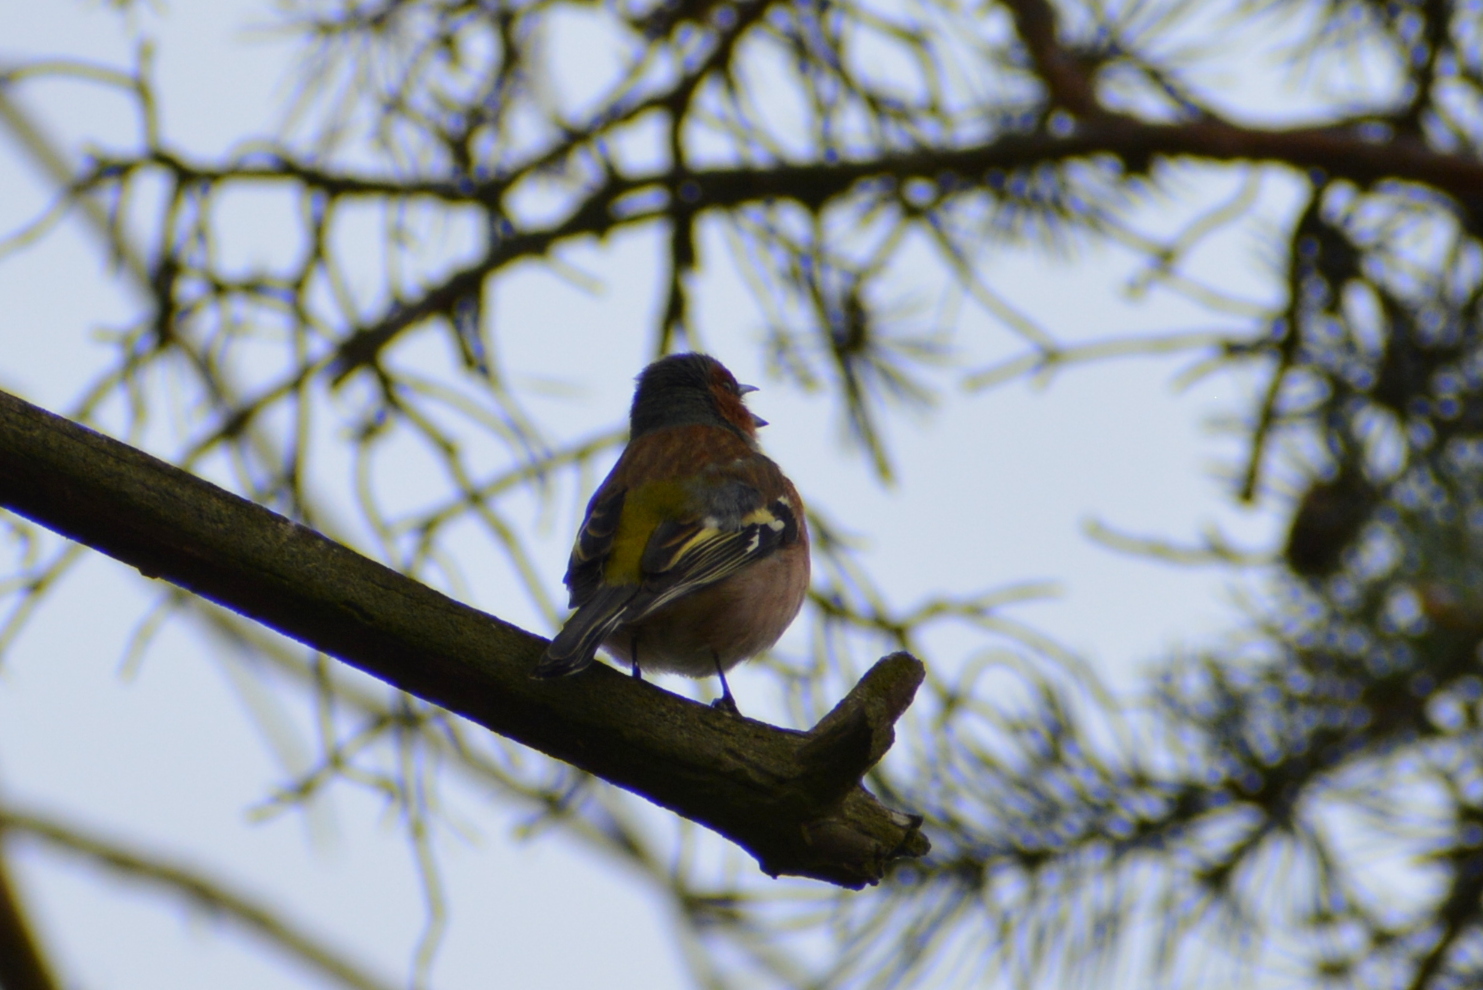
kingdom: Animalia
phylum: Chordata
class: Aves
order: Passeriformes
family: Fringillidae
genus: Fringilla
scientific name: Fringilla coelebs
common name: Common chaffinch
